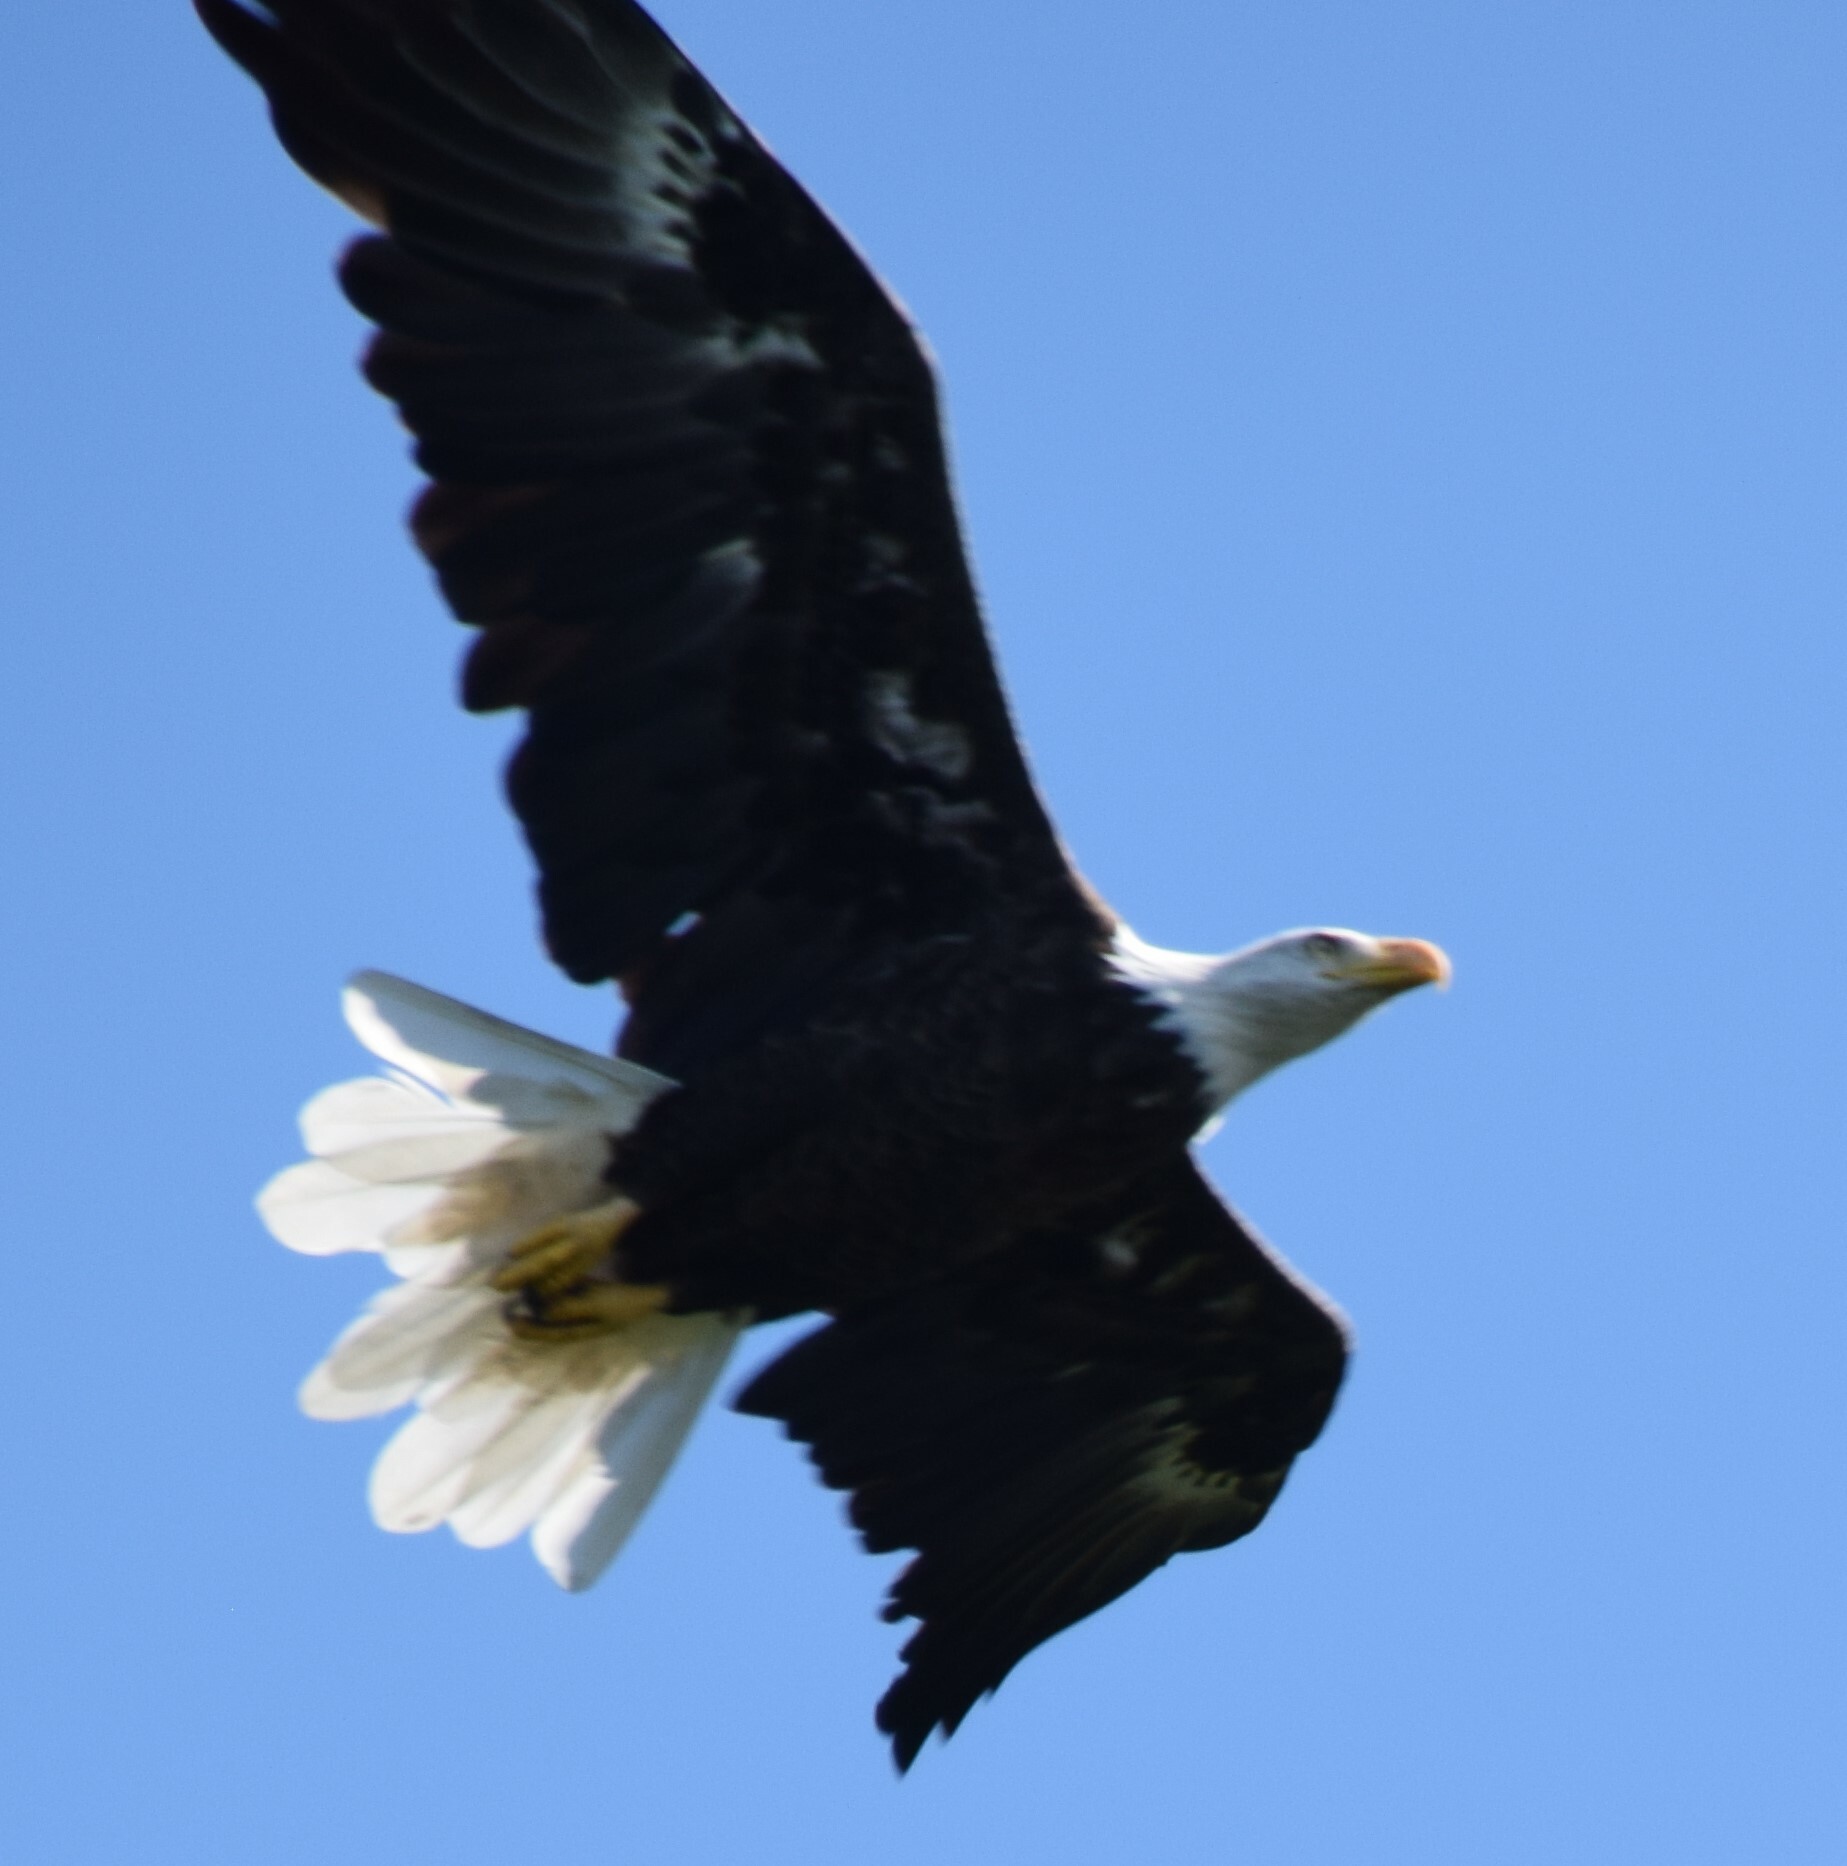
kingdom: Animalia
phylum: Chordata
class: Aves
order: Accipitriformes
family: Accipitridae
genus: Haliaeetus
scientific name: Haliaeetus leucocephalus
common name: Bald eagle
